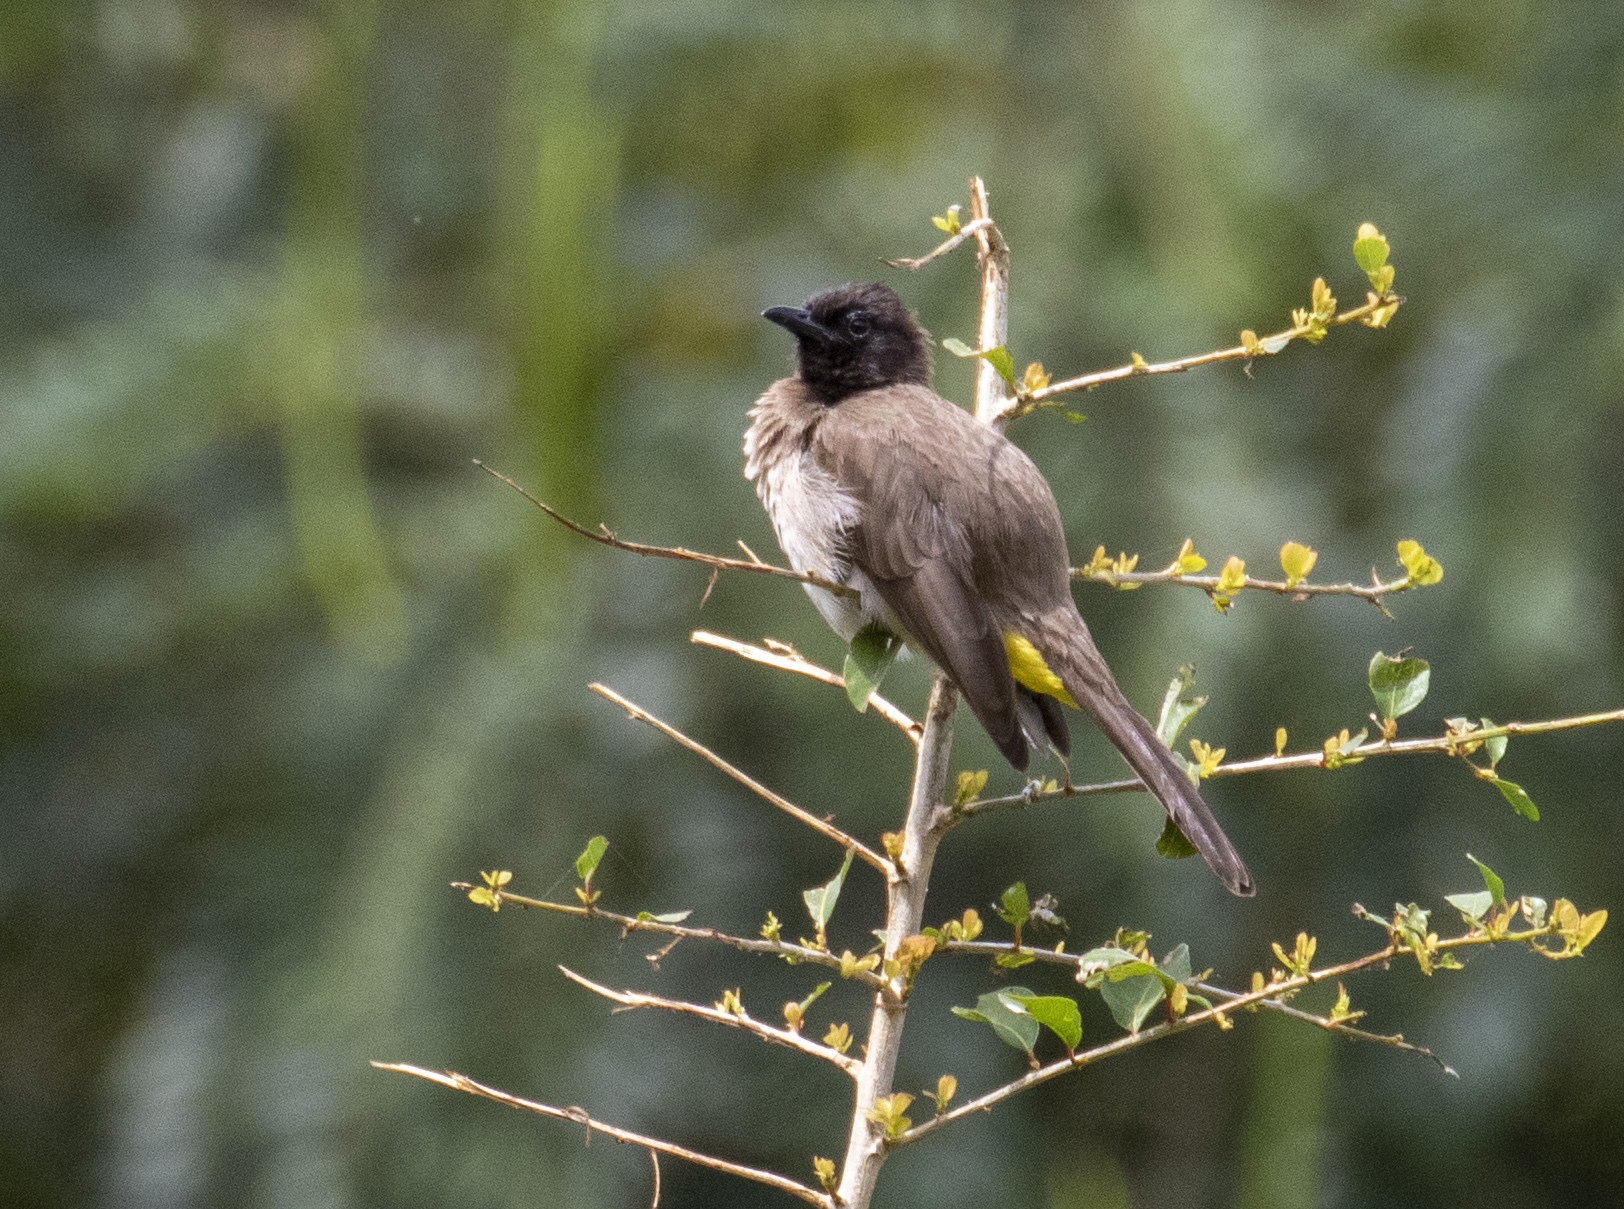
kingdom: Animalia
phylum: Chordata
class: Aves
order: Passeriformes
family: Pycnonotidae
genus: Pycnonotus
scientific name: Pycnonotus barbatus
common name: Common bulbul
